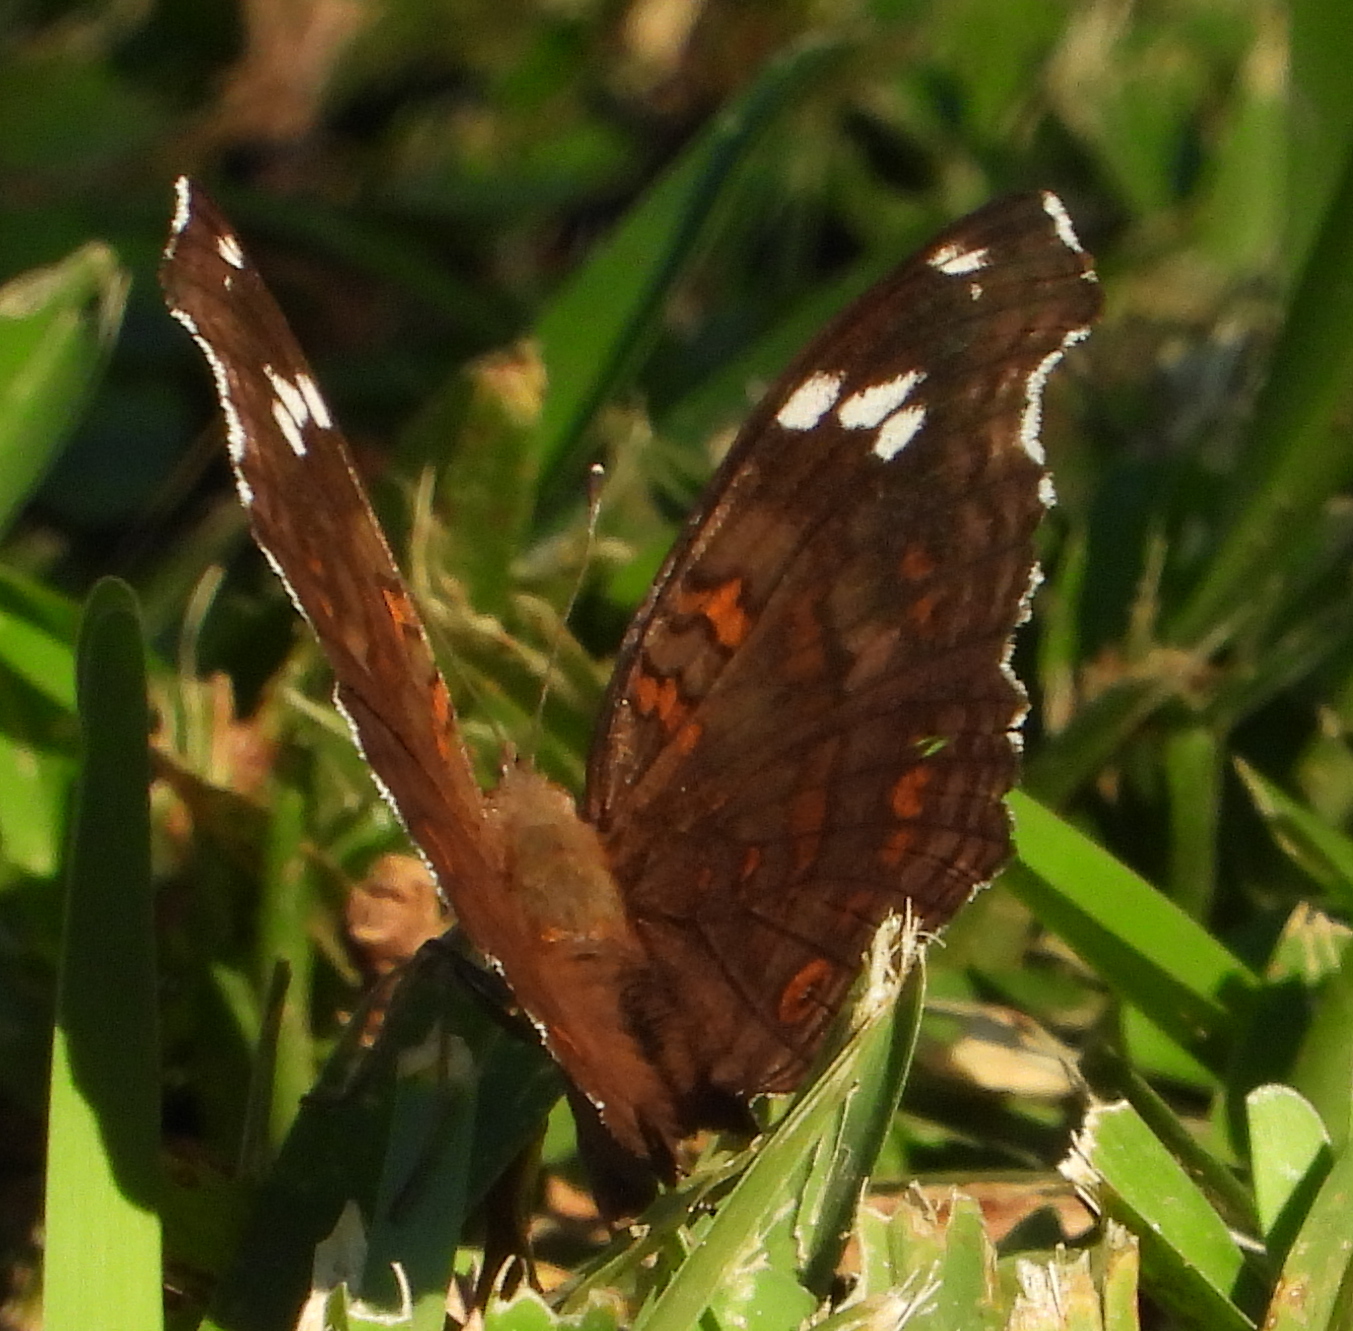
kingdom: Animalia
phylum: Arthropoda
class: Insecta
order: Lepidoptera
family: Nymphalidae
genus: Junonia
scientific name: Junonia natalica
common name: Brown pansy
